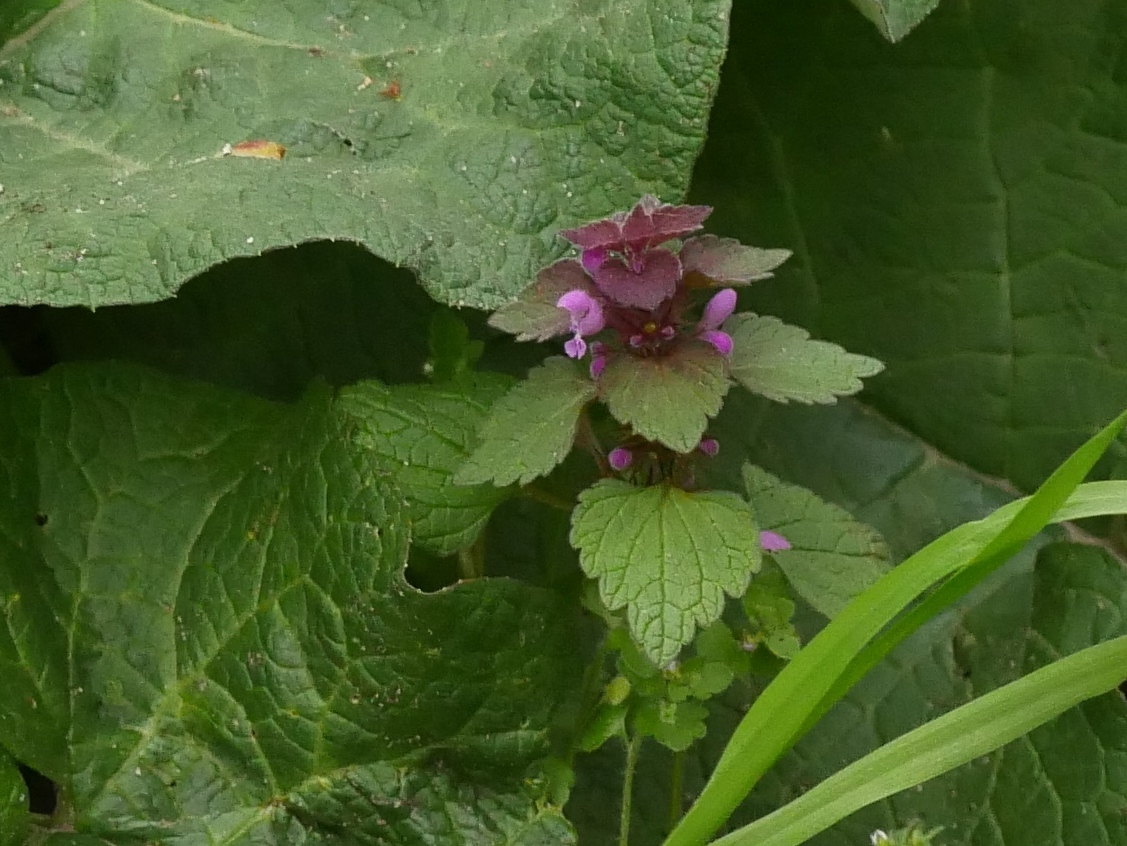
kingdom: Plantae
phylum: Tracheophyta
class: Magnoliopsida
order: Lamiales
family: Lamiaceae
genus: Lamium
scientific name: Lamium purpureum
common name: Red dead-nettle
